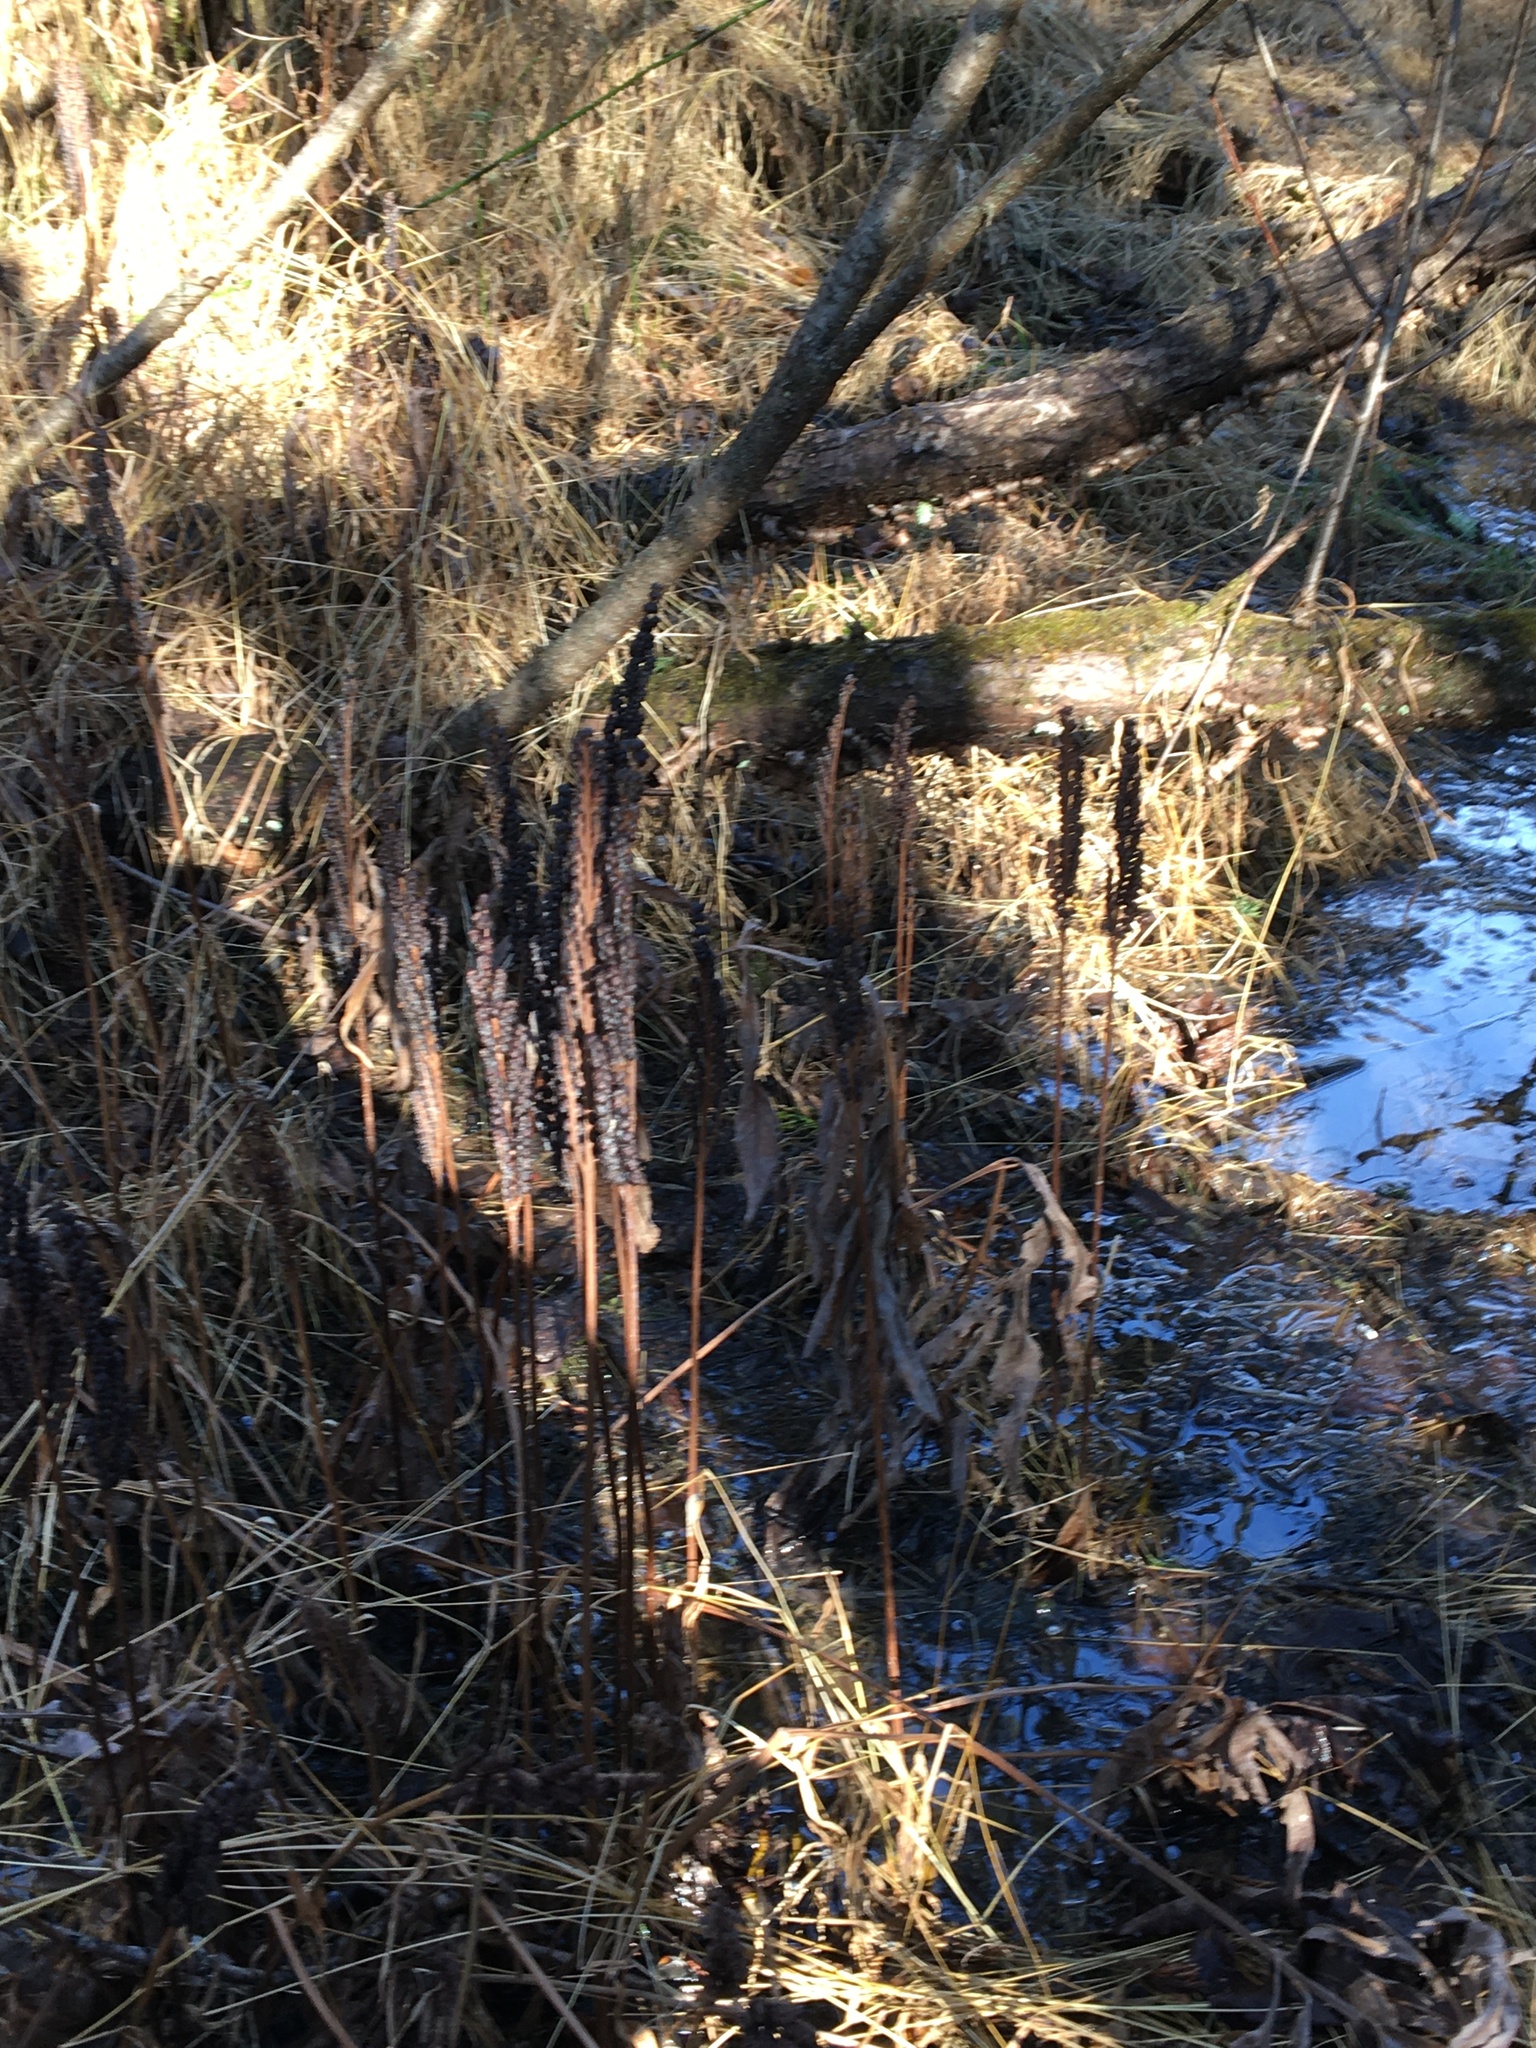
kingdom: Plantae
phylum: Tracheophyta
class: Polypodiopsida
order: Polypodiales
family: Onocleaceae
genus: Onoclea
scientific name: Onoclea sensibilis
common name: Sensitive fern
